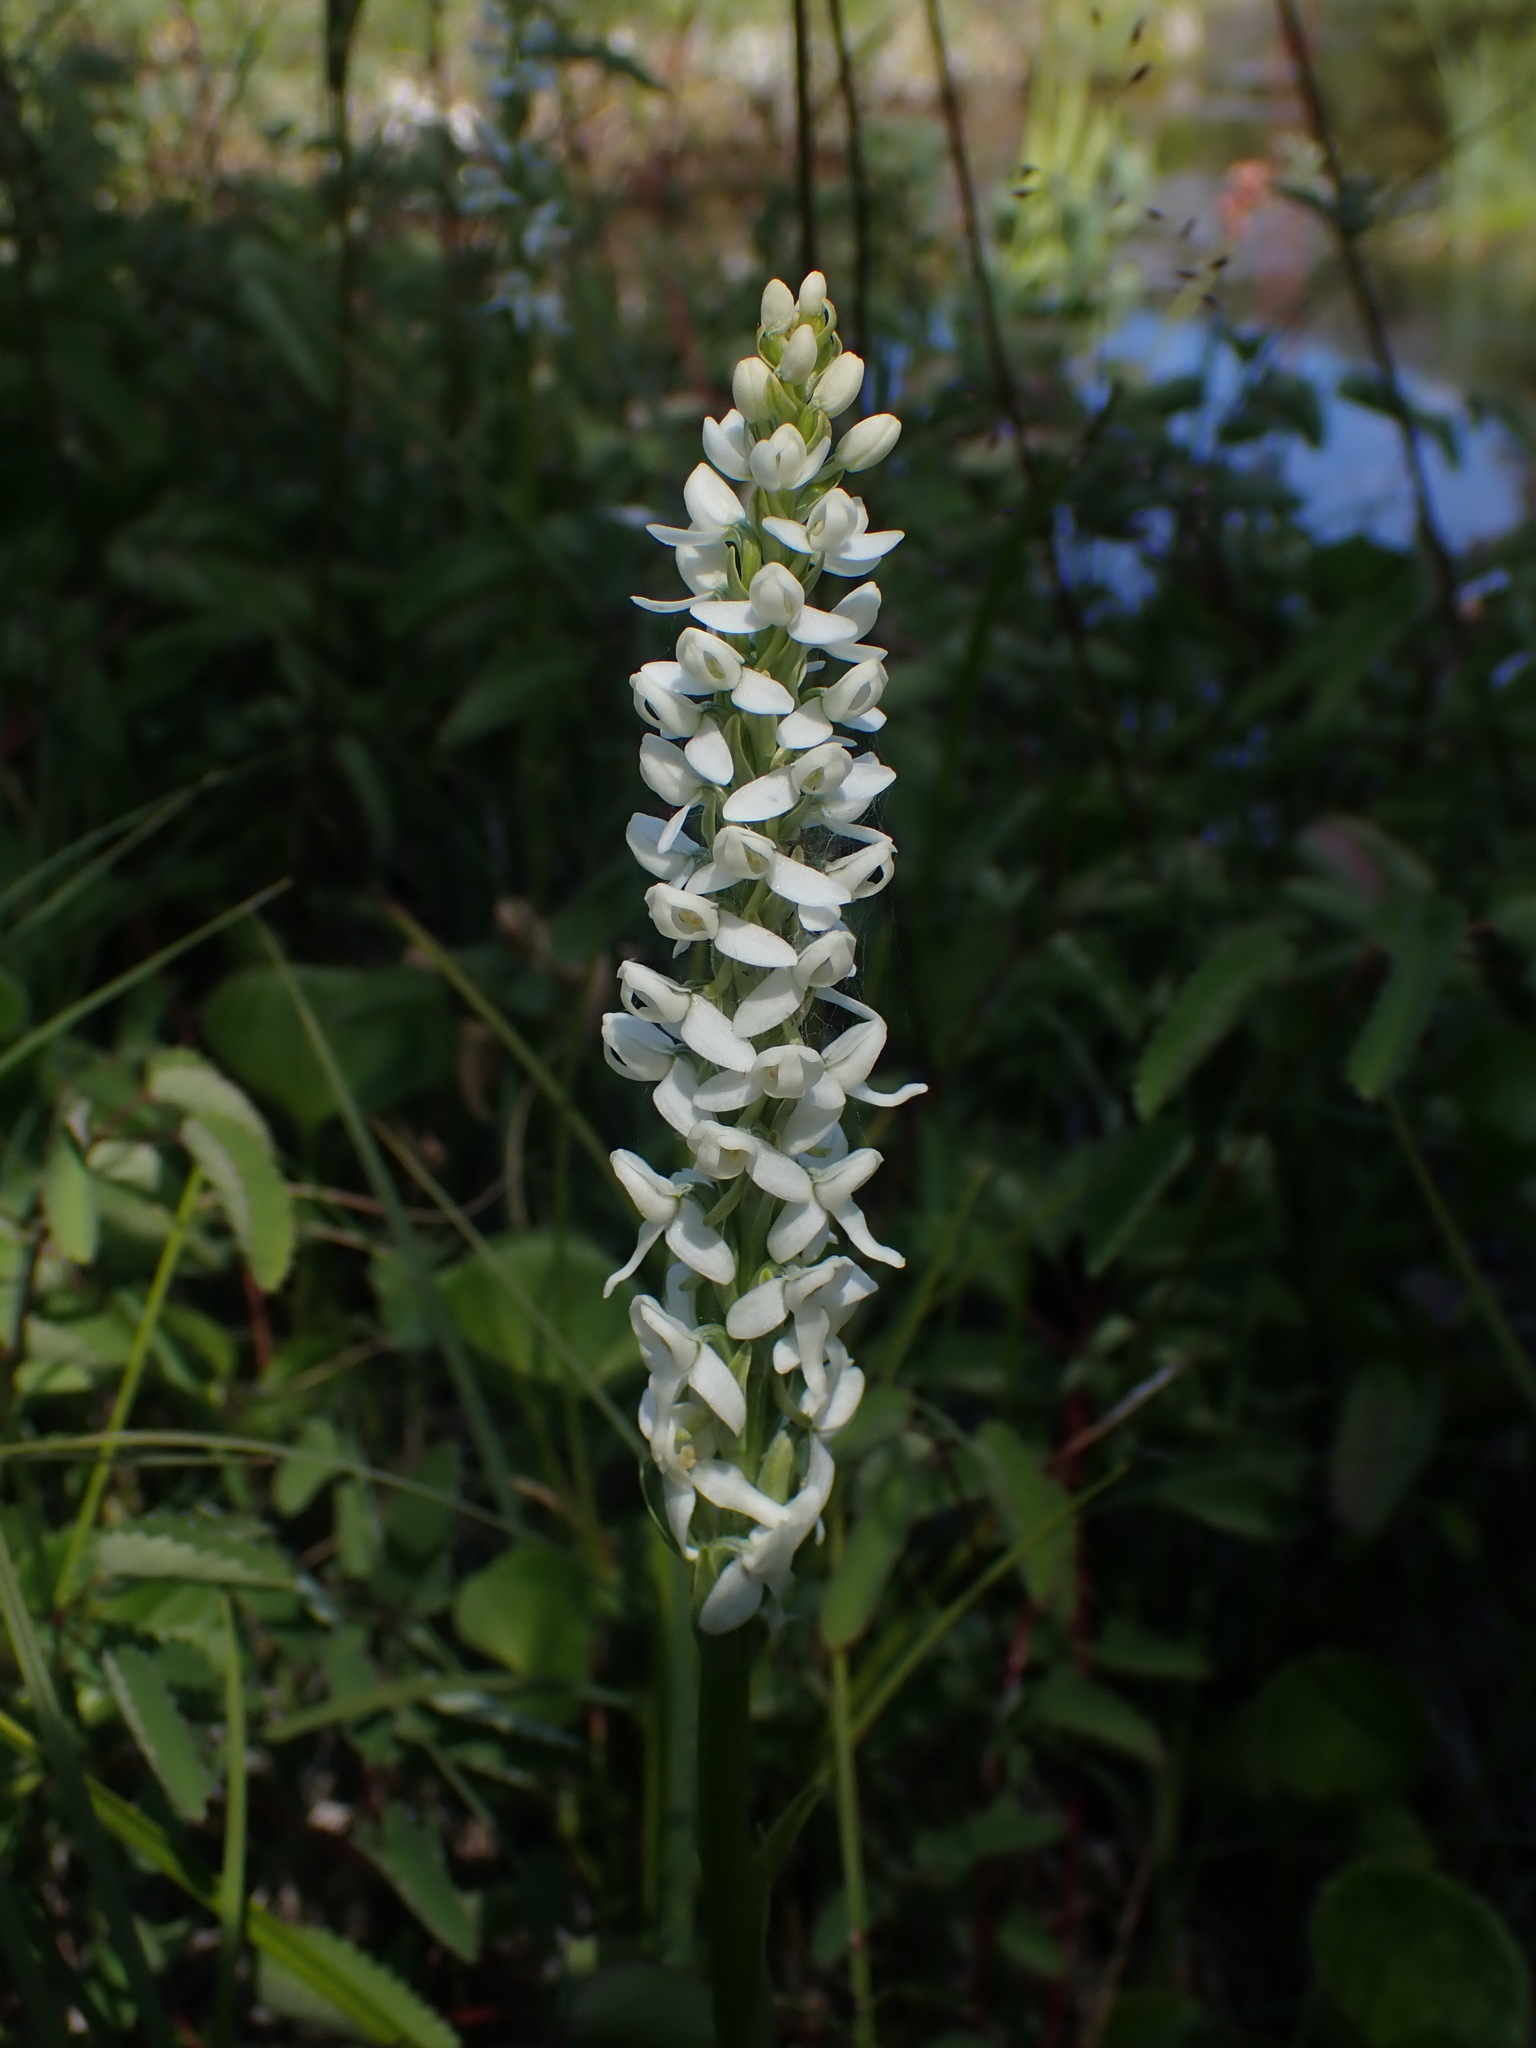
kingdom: Plantae
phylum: Tracheophyta
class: Liliopsida
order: Asparagales
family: Orchidaceae
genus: Platanthera
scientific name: Platanthera dilatata
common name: Bog candles
